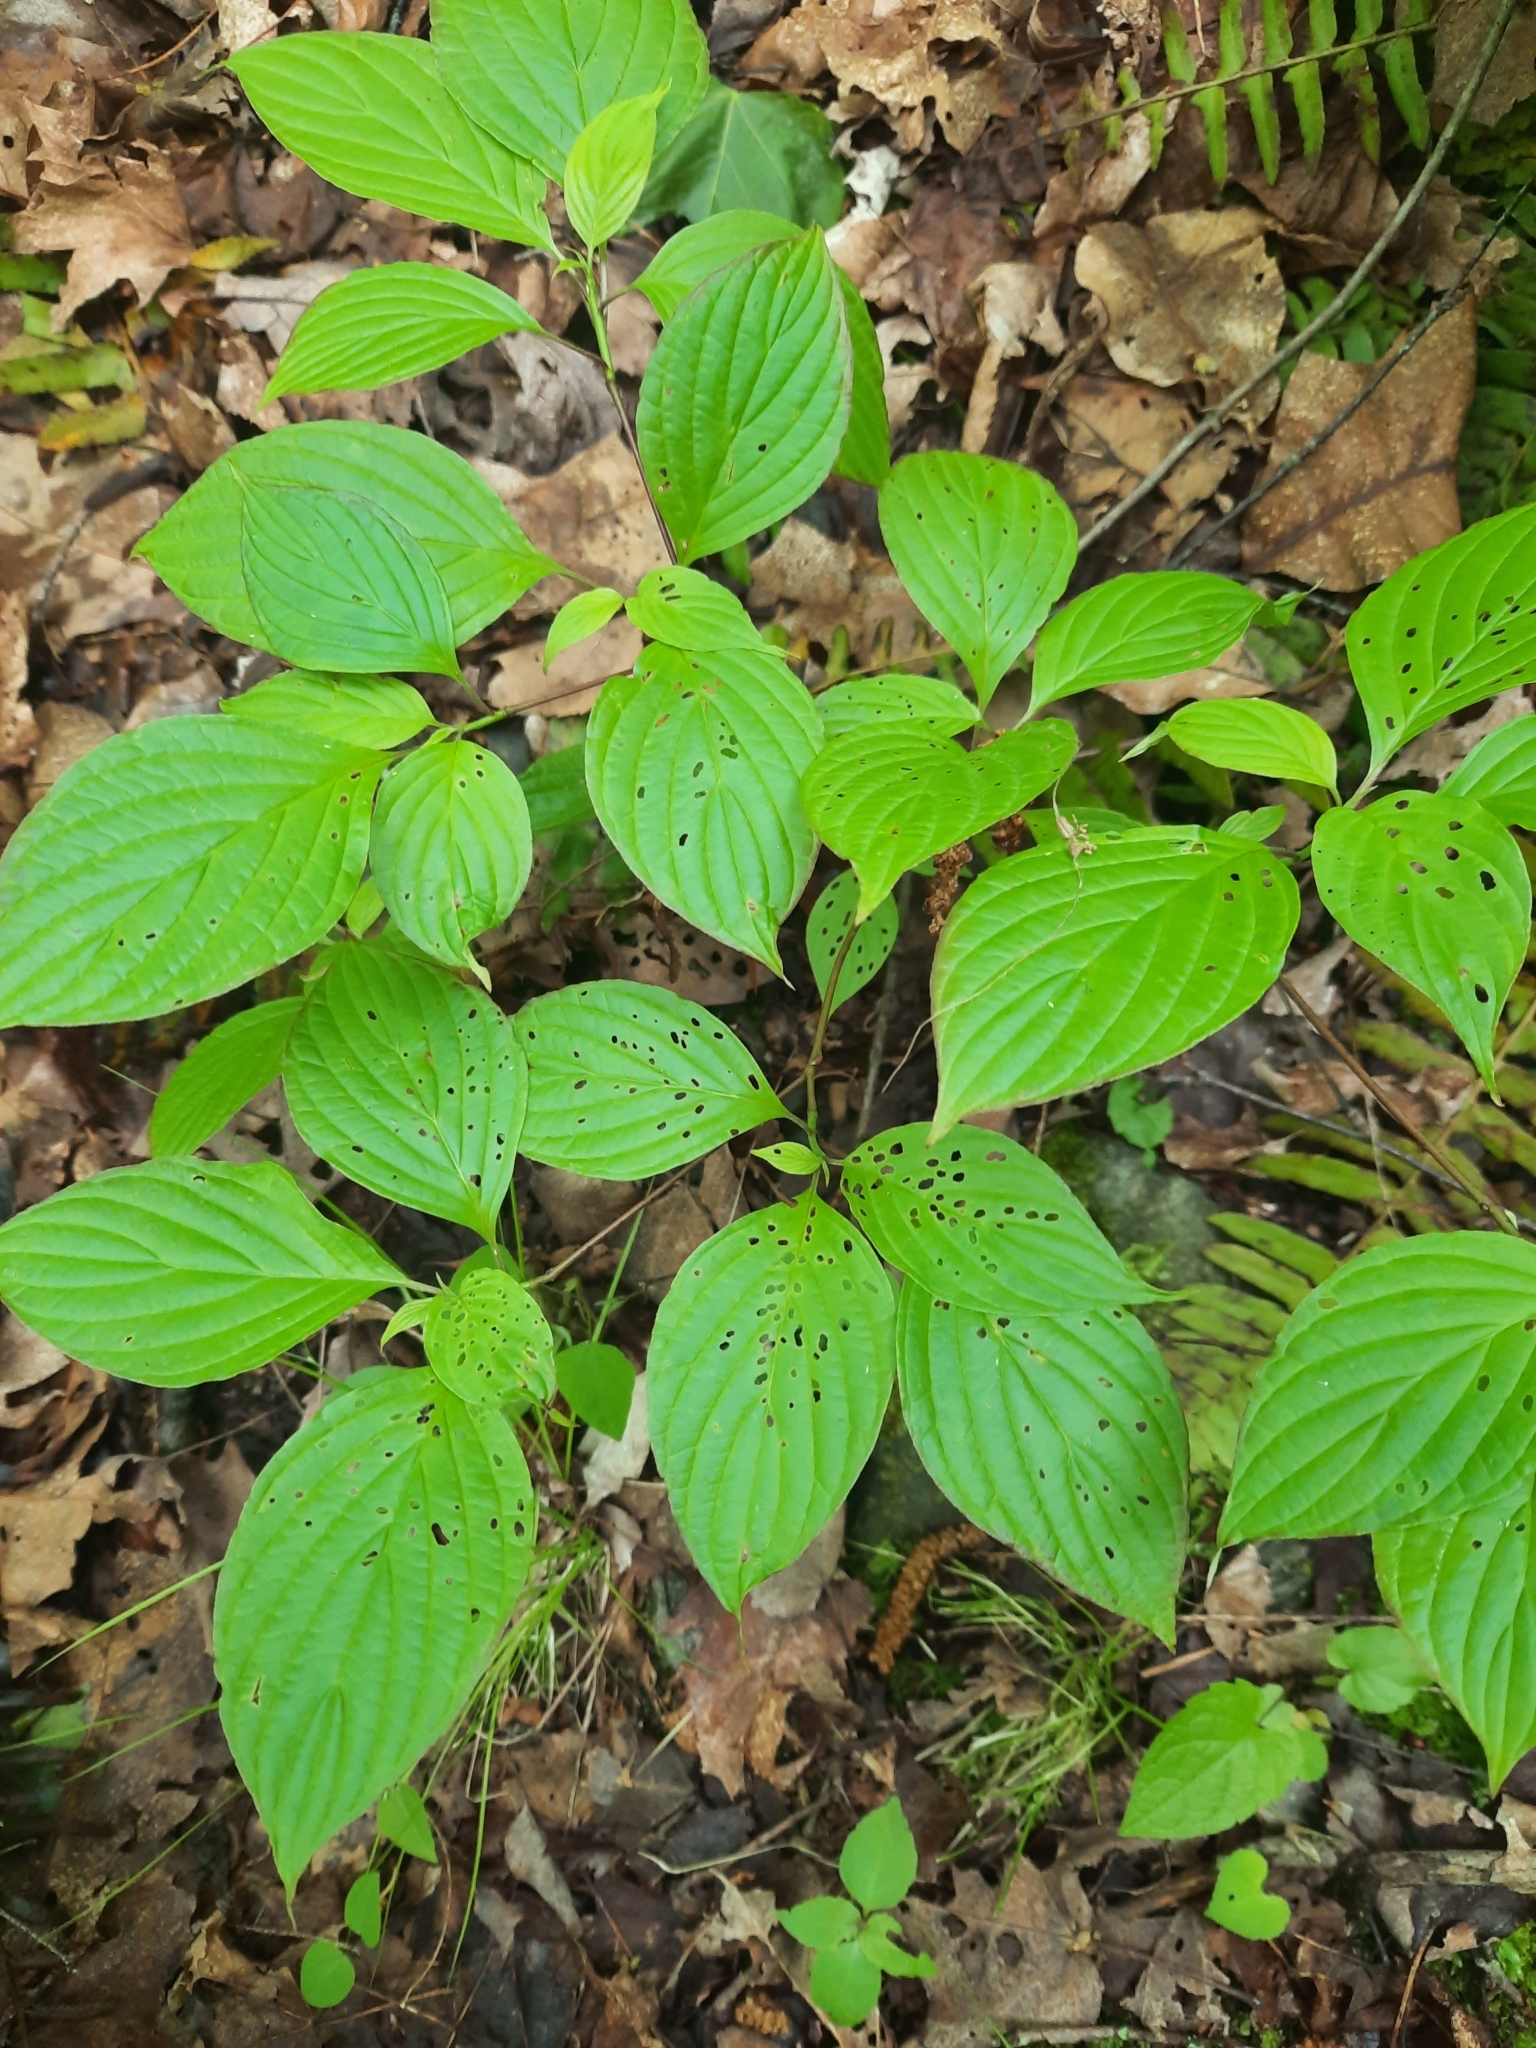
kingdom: Plantae
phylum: Tracheophyta
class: Magnoliopsida
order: Cornales
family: Cornaceae
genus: Cornus
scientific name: Cornus alternifolia
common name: Pagoda dogwood
